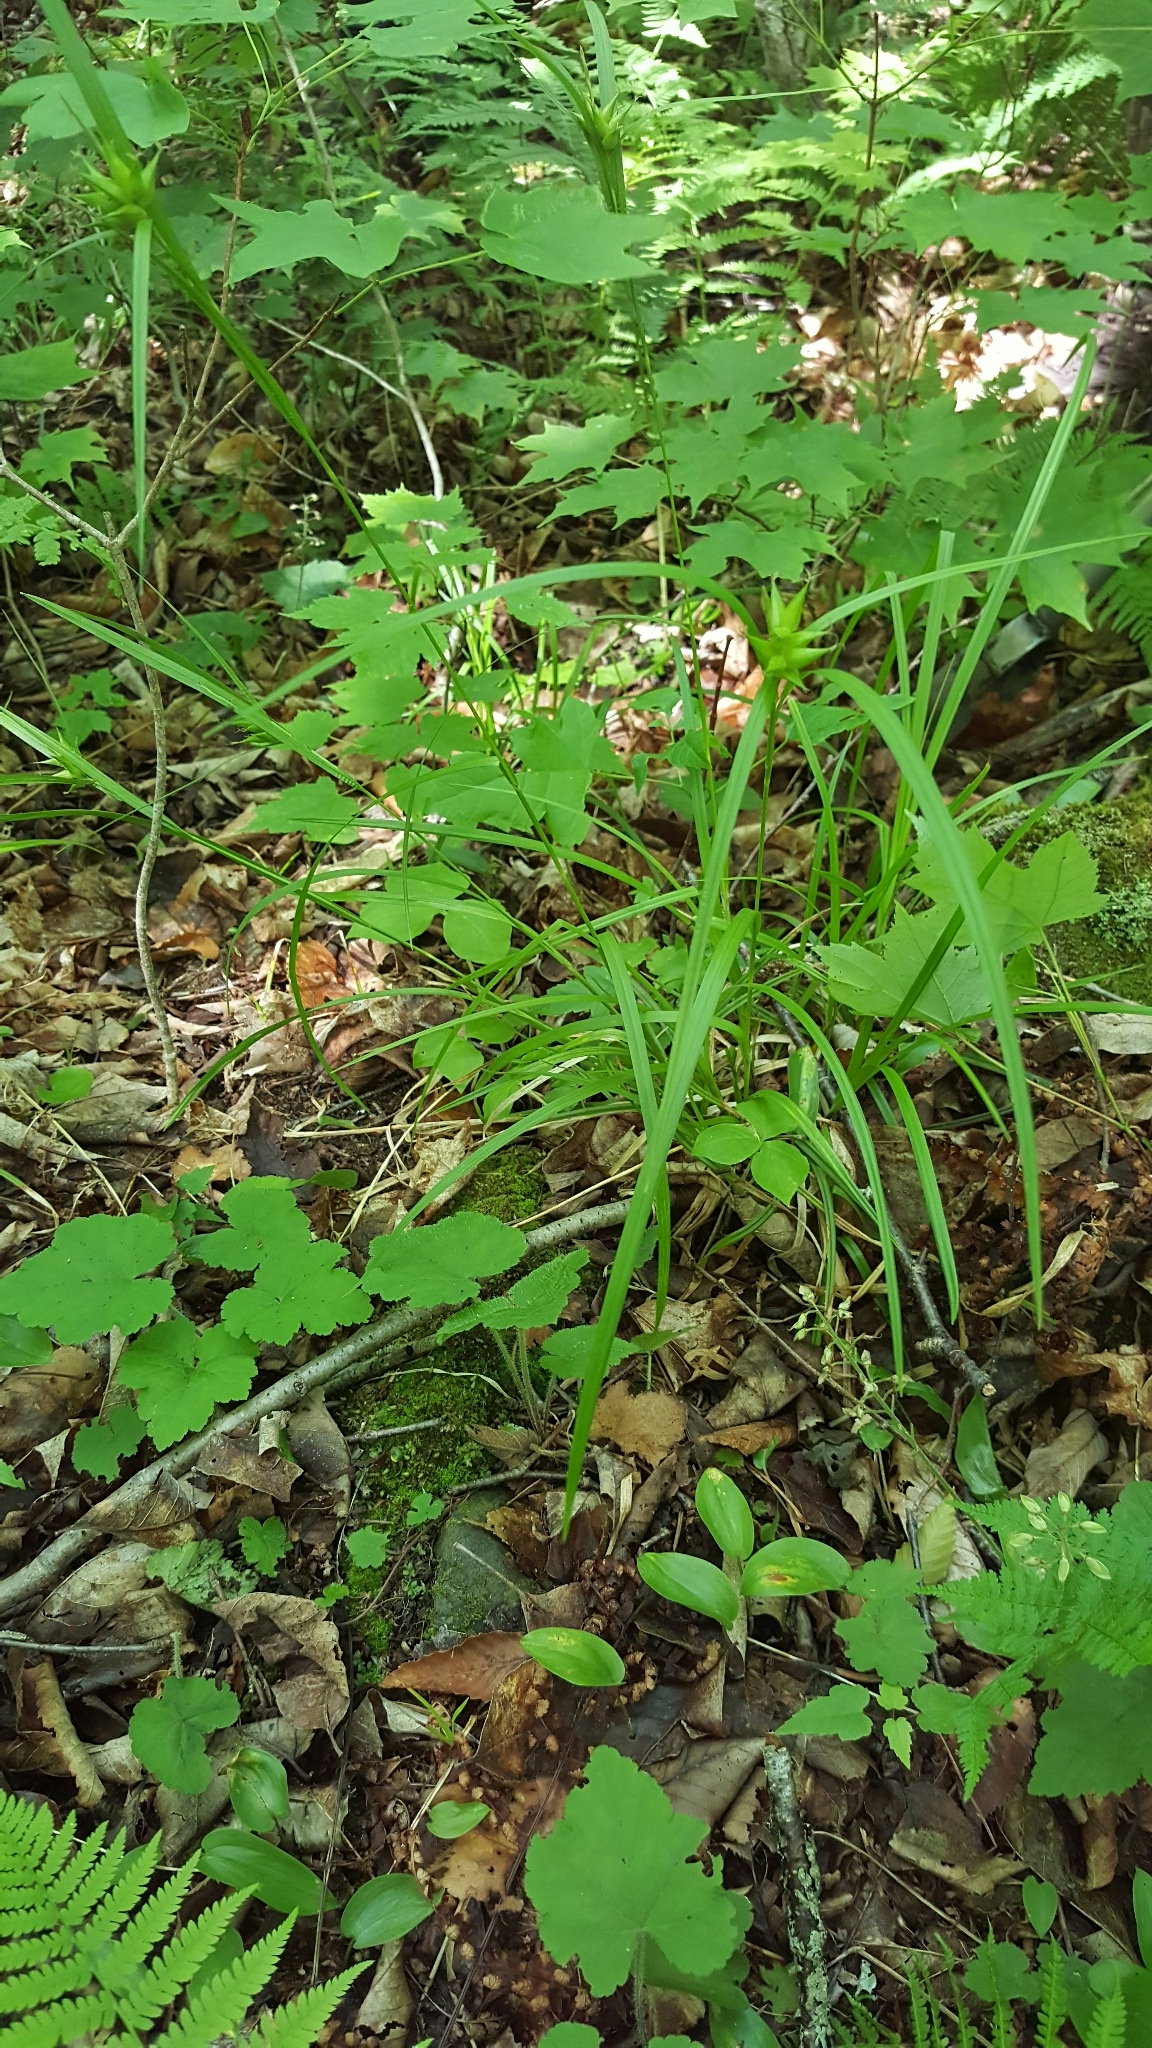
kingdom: Plantae
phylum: Tracheophyta
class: Liliopsida
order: Poales
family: Cyperaceae
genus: Carex
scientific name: Carex intumescens
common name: Greater bladder sedge
